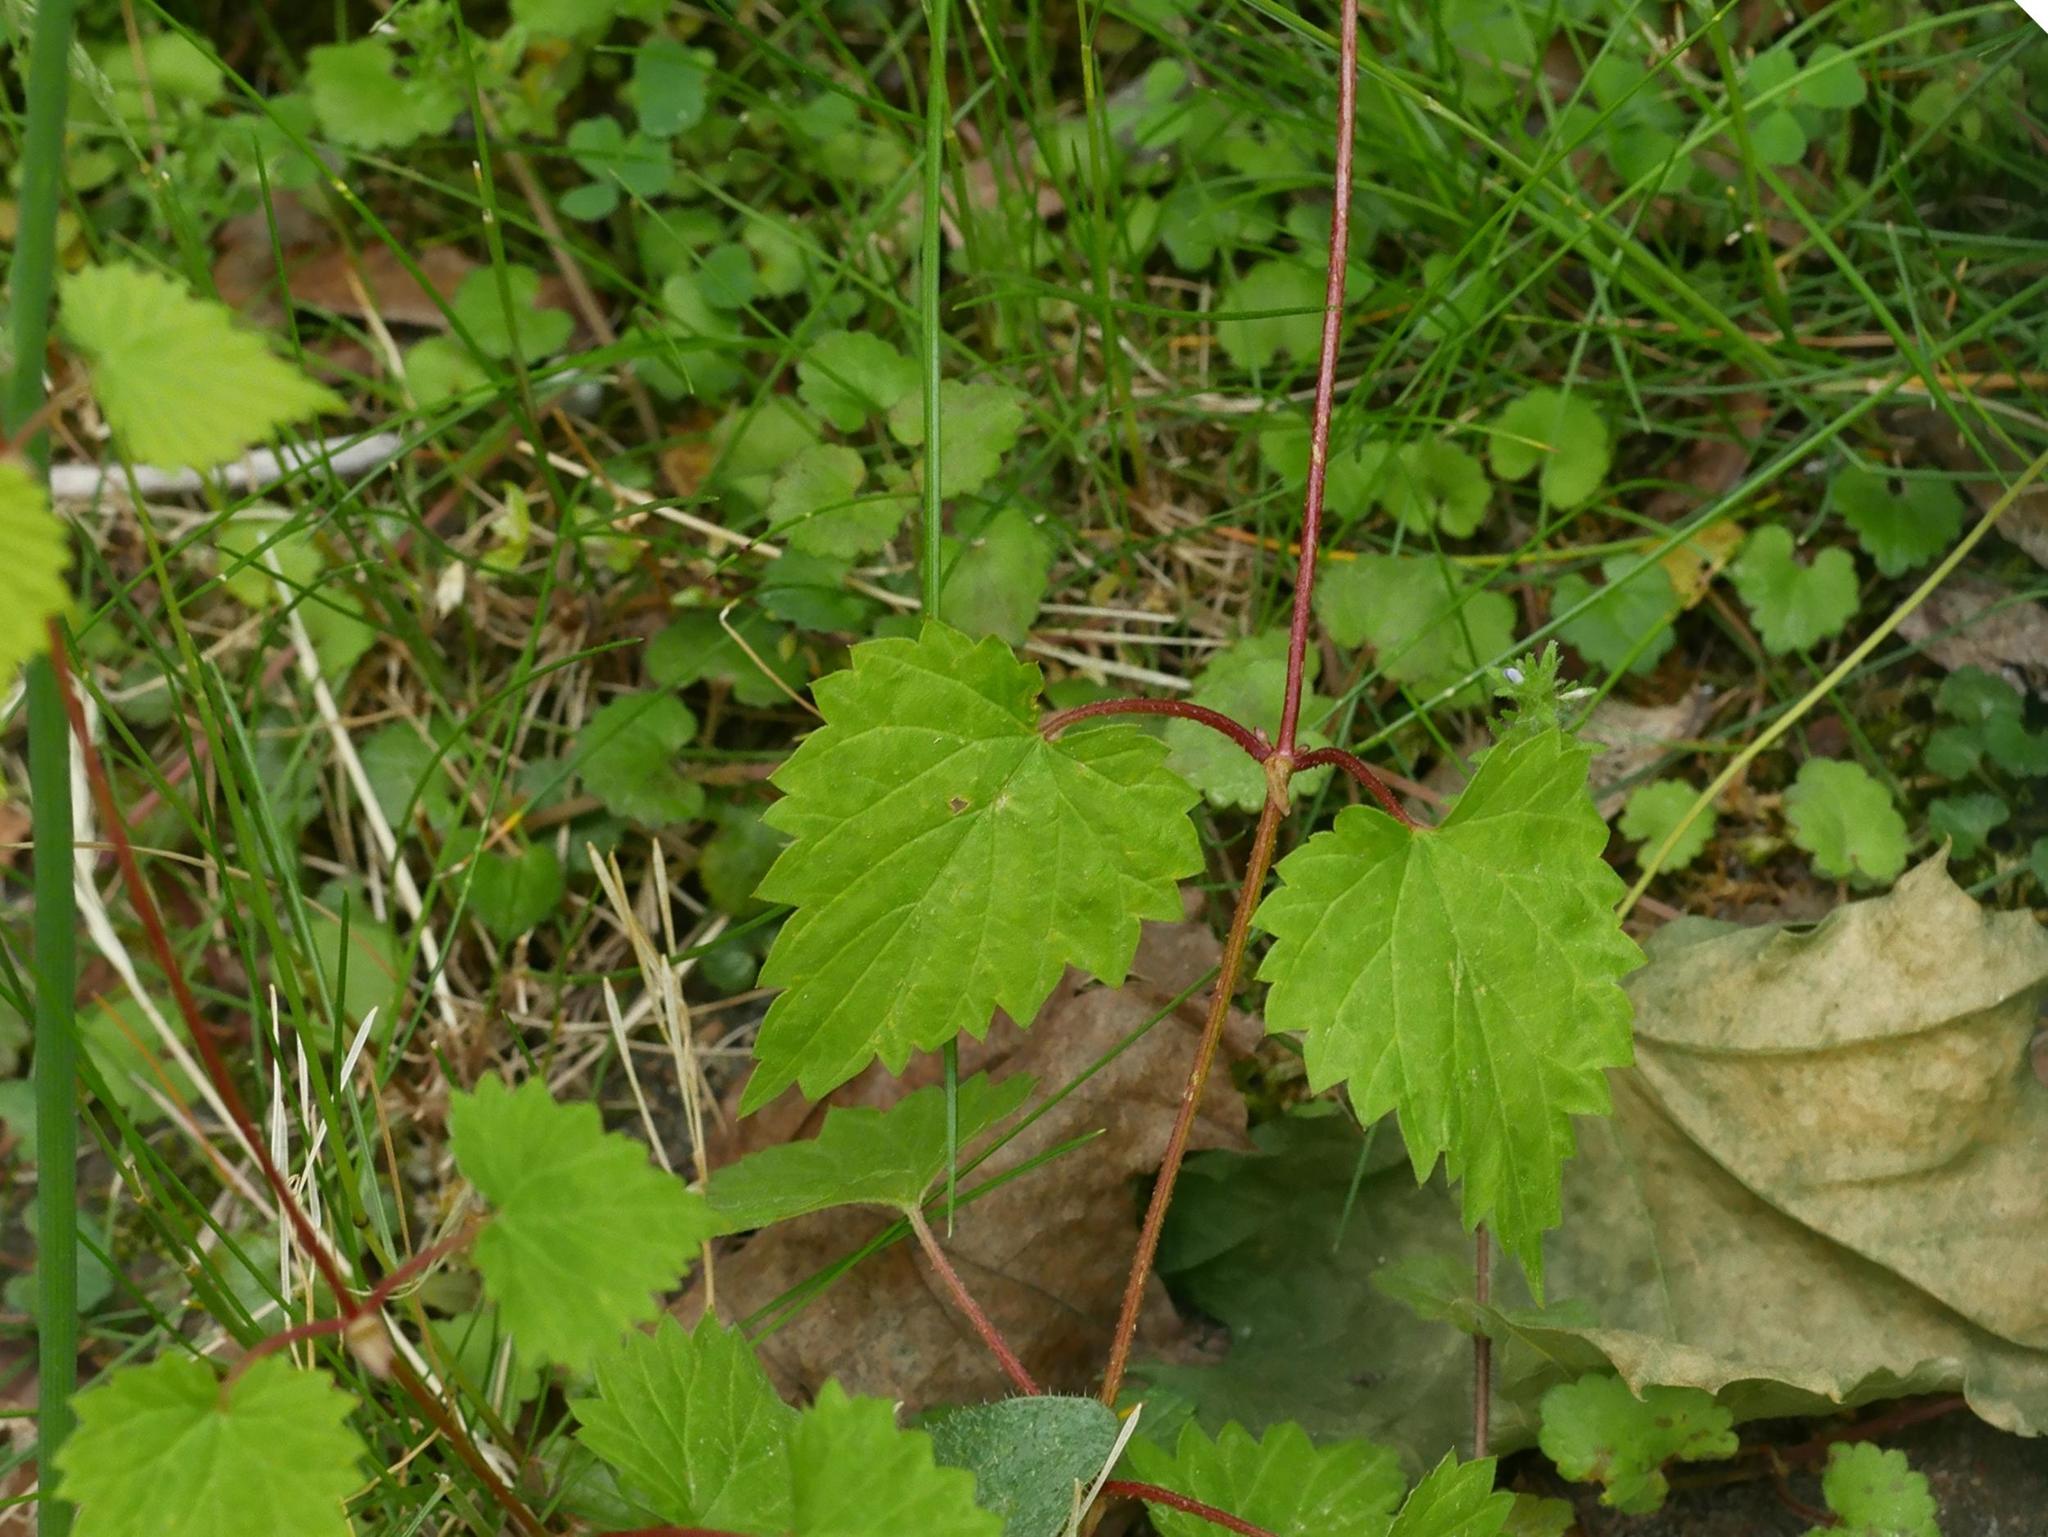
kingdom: Plantae
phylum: Tracheophyta
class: Magnoliopsida
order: Rosales
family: Cannabaceae
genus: Humulus
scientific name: Humulus lupulus
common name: Hop
